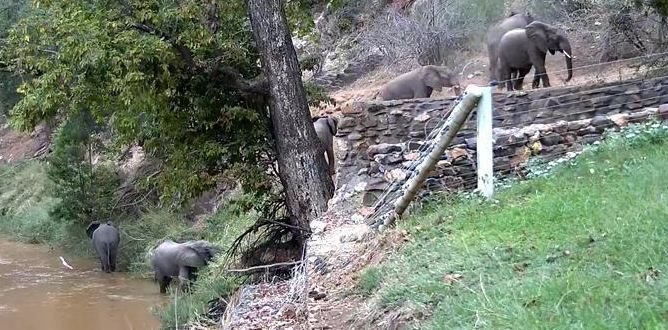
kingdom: Animalia
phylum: Chordata
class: Mammalia
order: Proboscidea
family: Elephantidae
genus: Loxodonta
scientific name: Loxodonta africana
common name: African elephant
